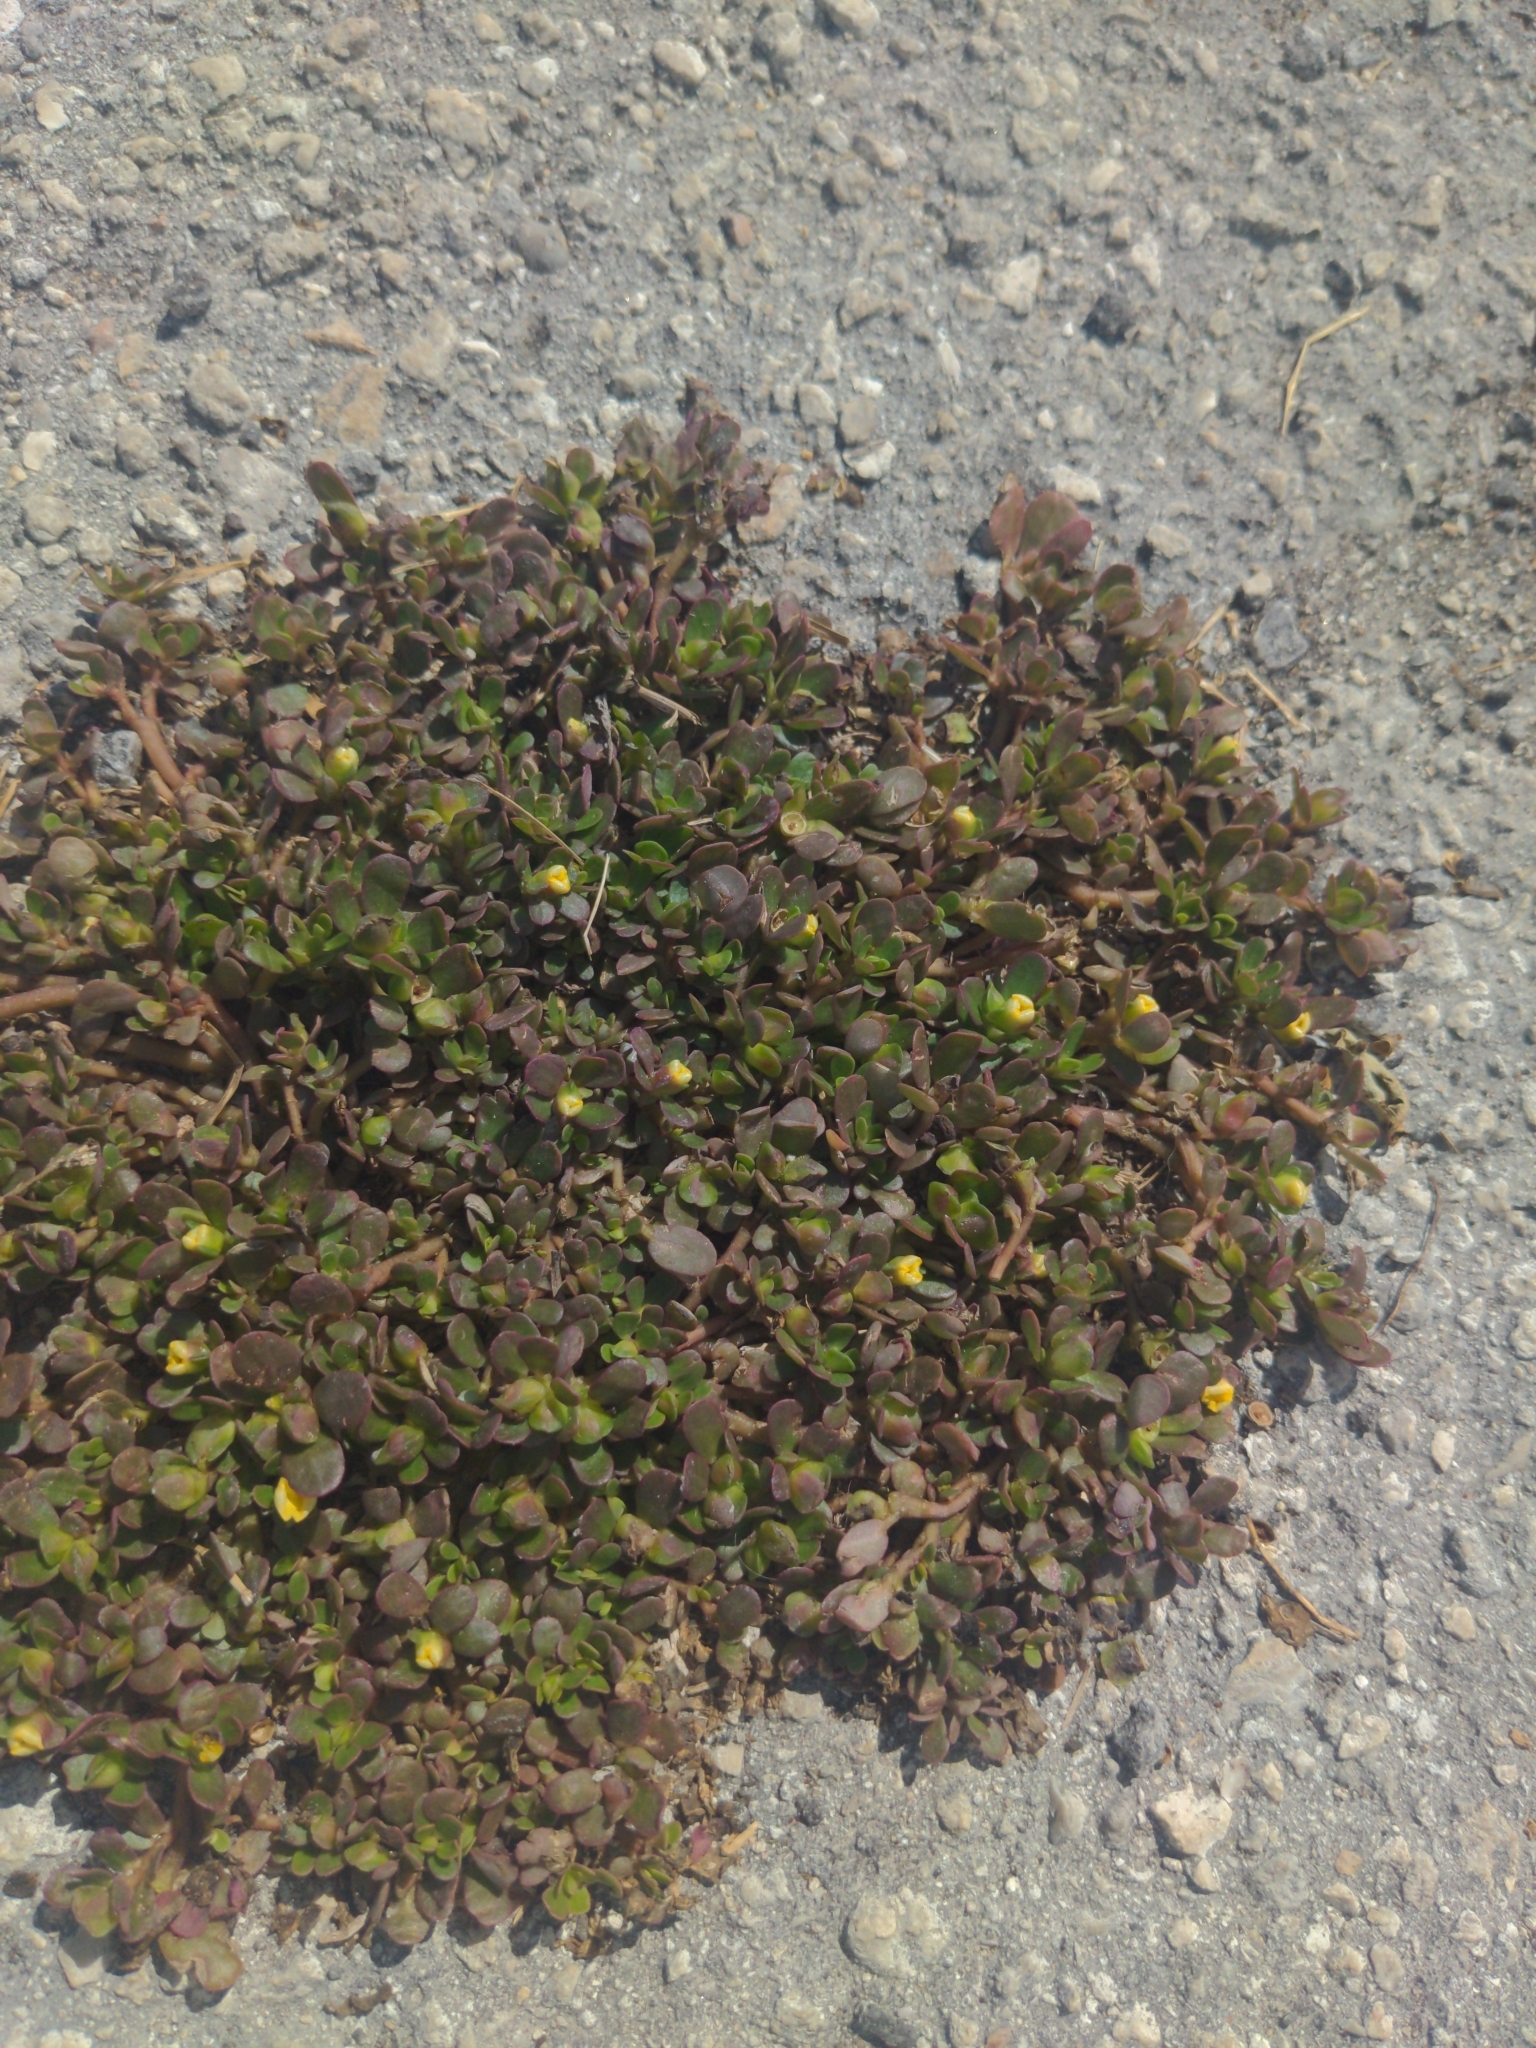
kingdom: Plantae
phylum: Tracheophyta
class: Magnoliopsida
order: Caryophyllales
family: Portulacaceae
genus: Portulaca
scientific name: Portulaca oleracea
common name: Common purslane
